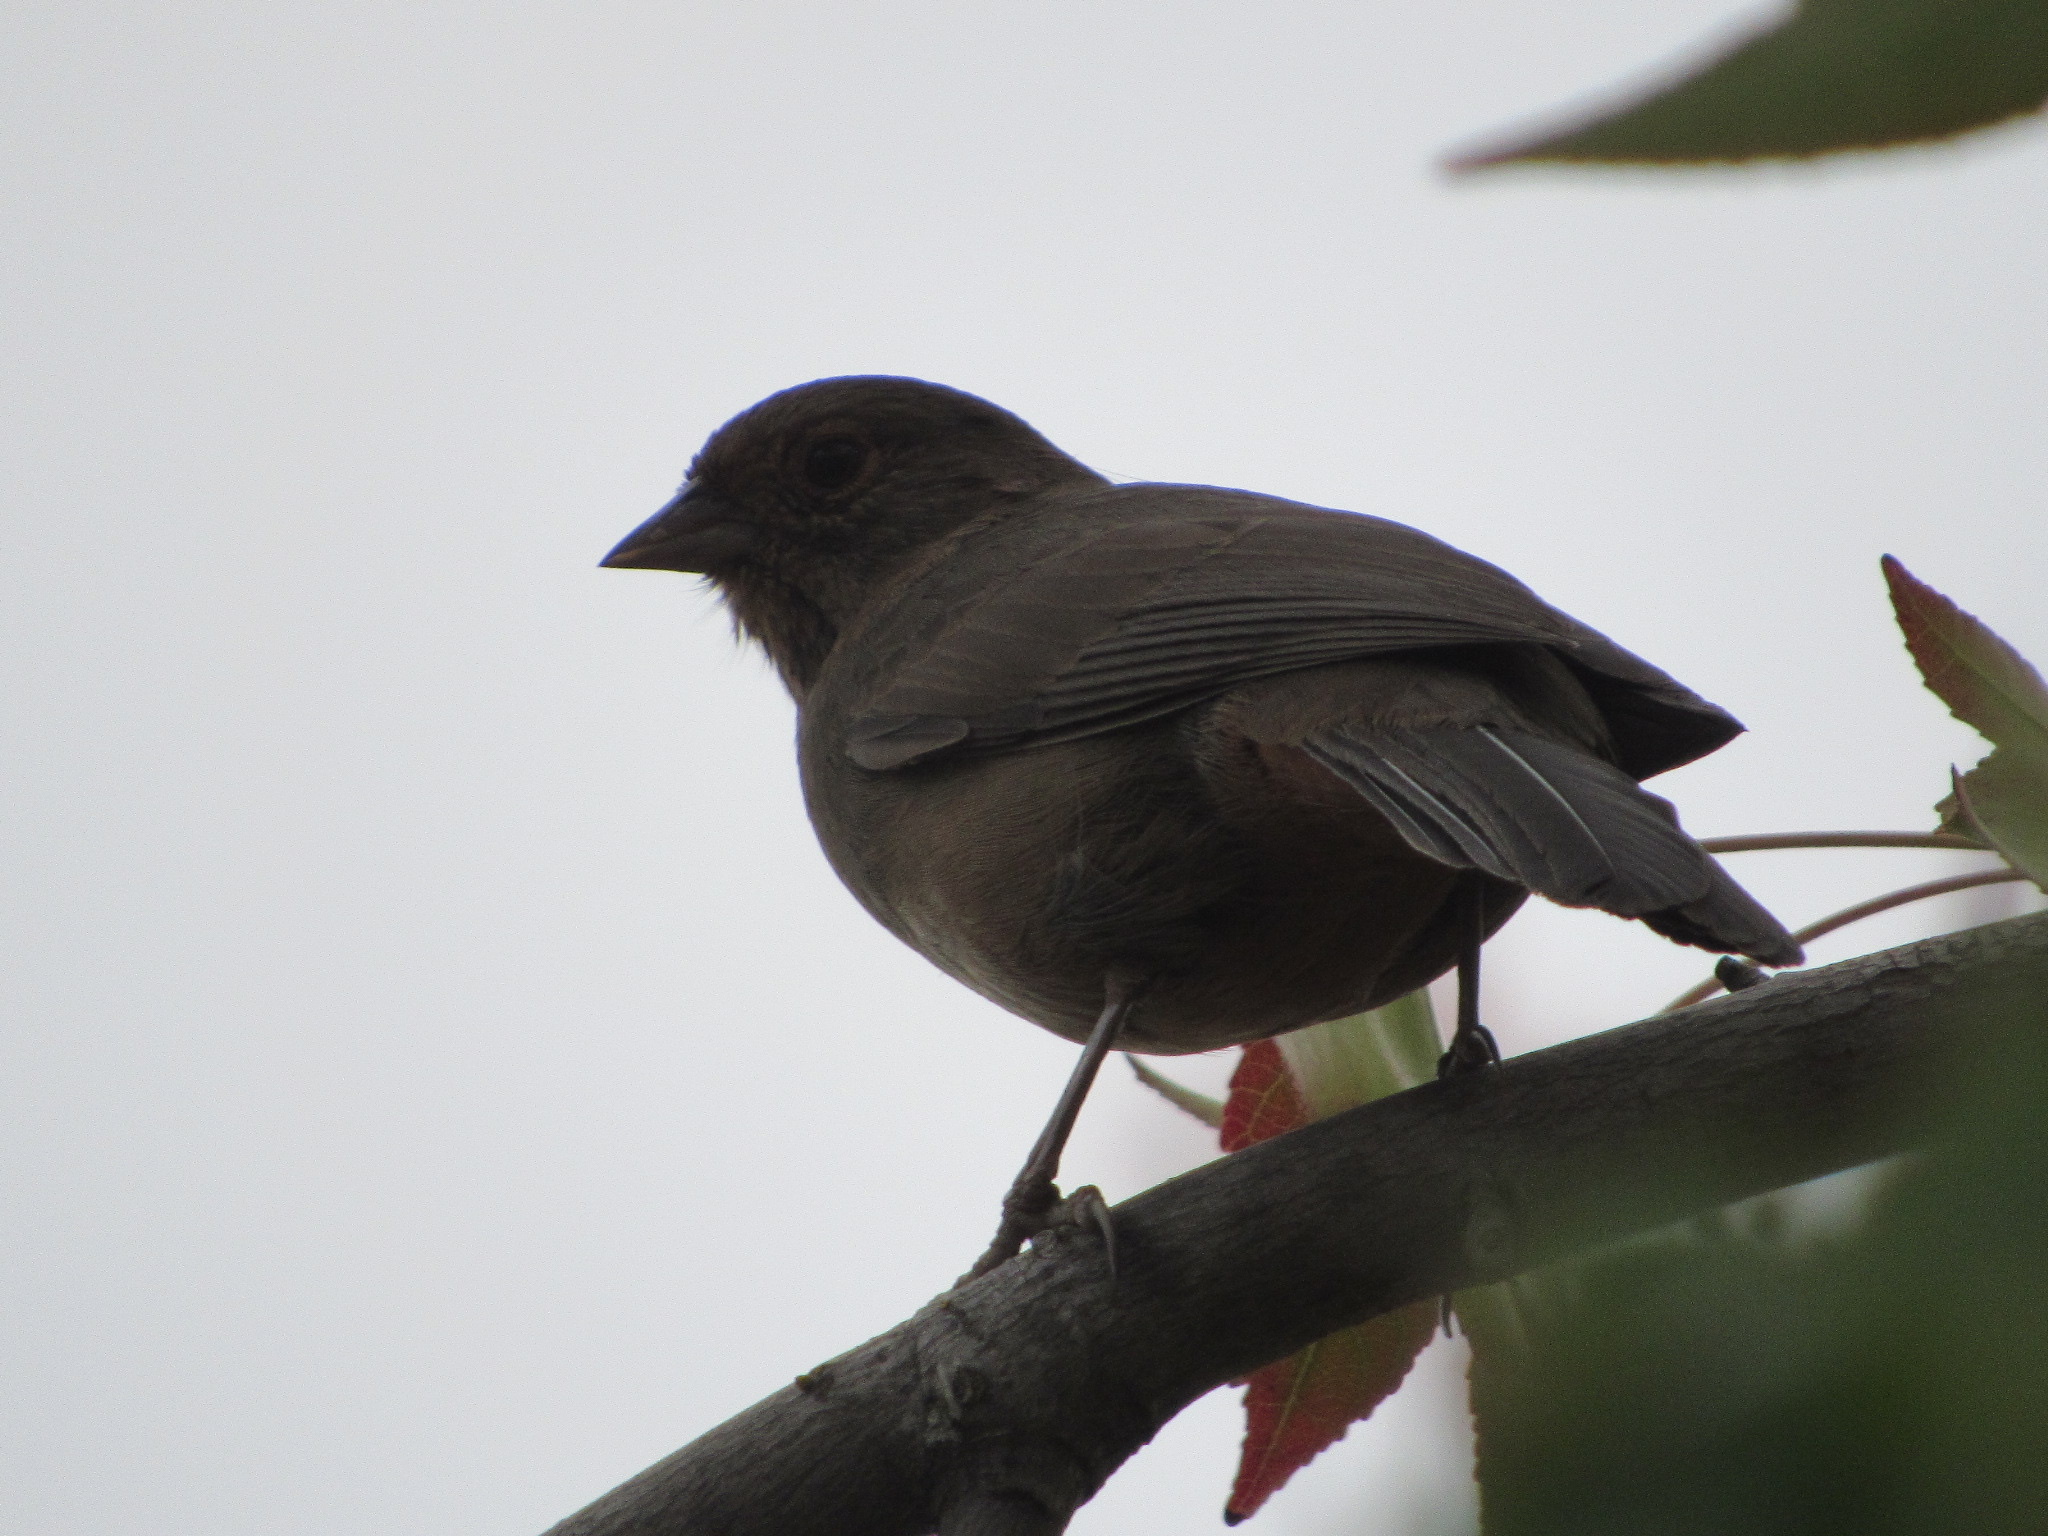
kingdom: Animalia
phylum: Chordata
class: Aves
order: Passeriformes
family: Passerellidae
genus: Melozone
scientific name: Melozone crissalis
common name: California towhee
